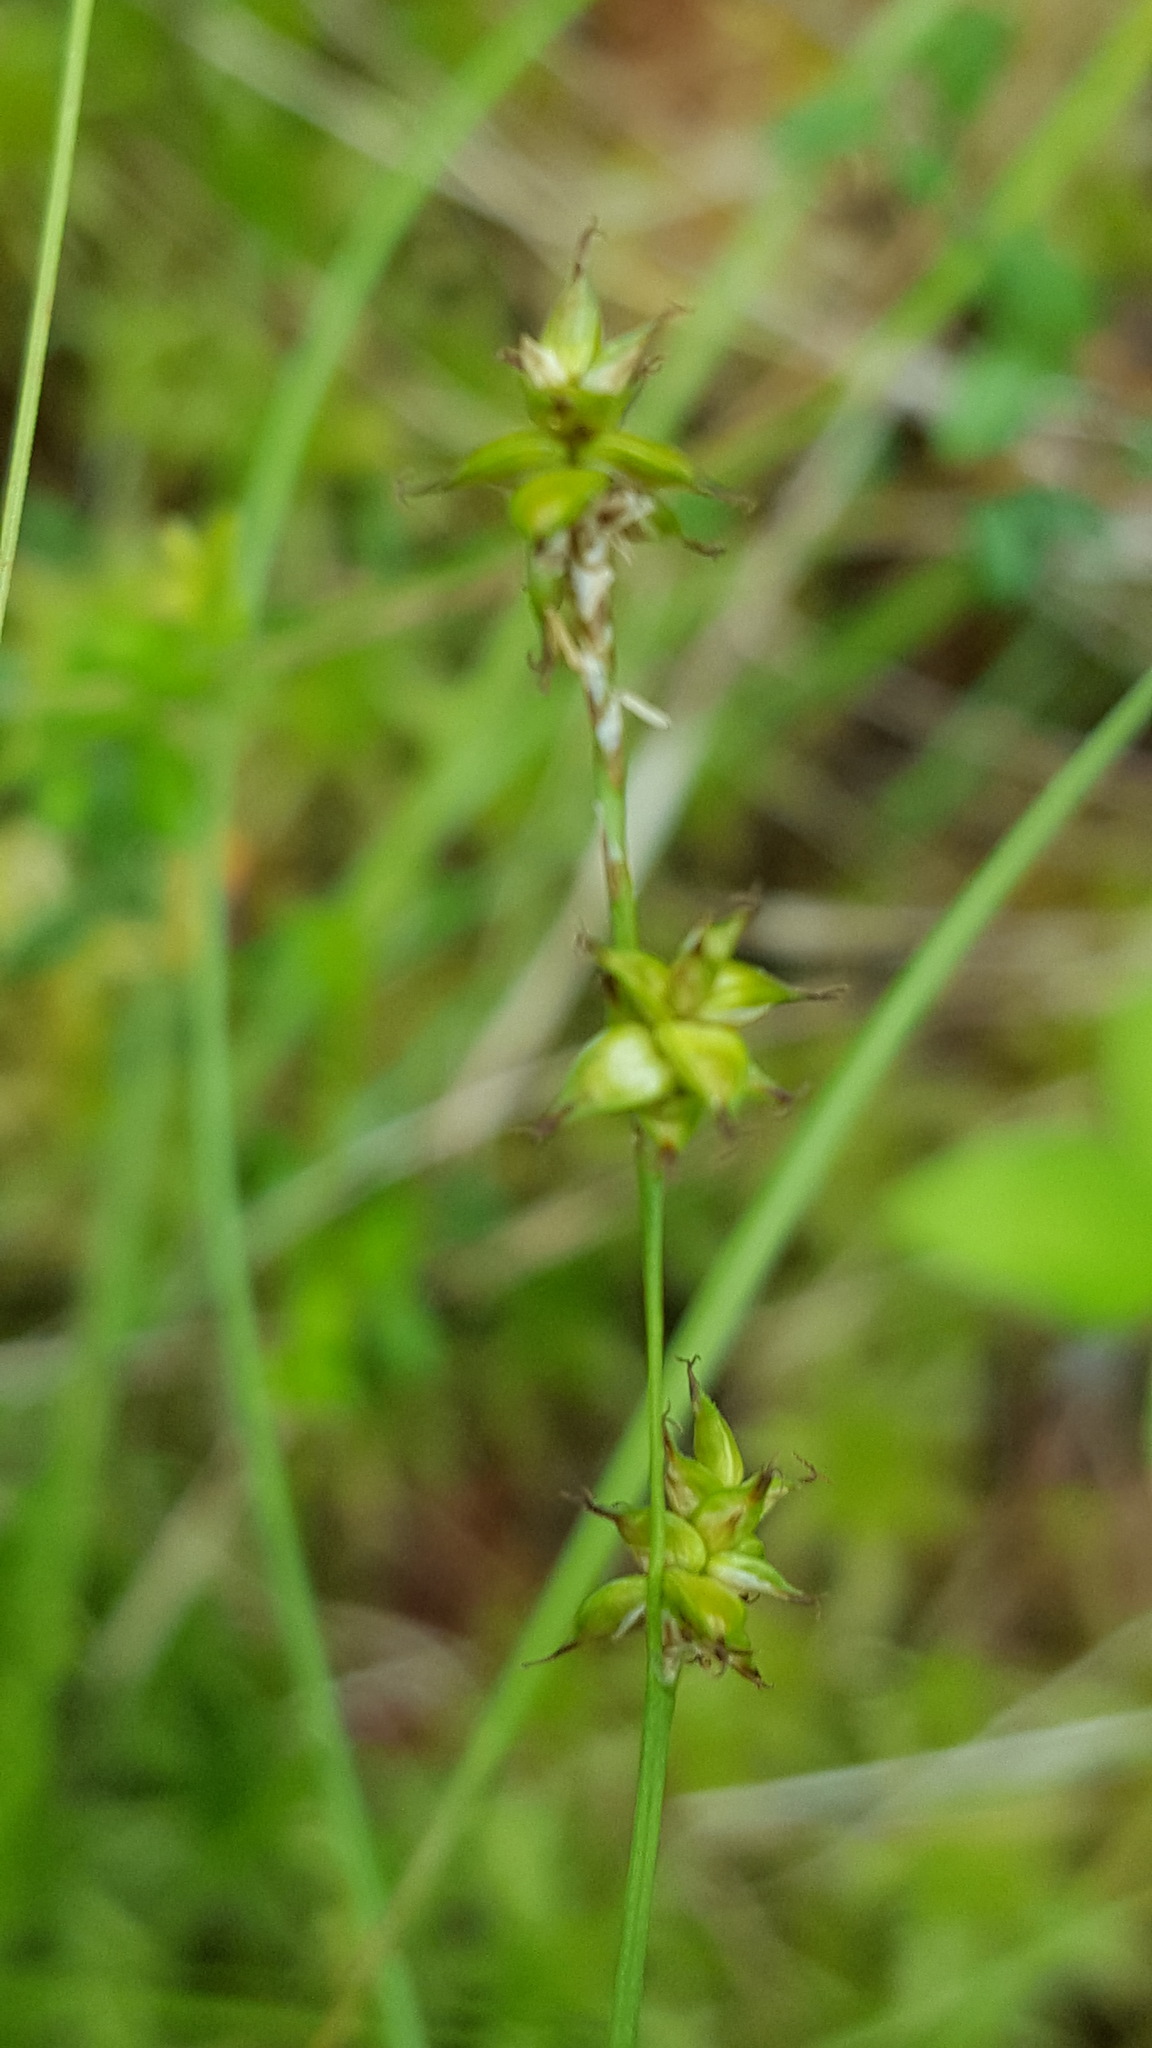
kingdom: Plantae
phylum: Tracheophyta
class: Liliopsida
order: Poales
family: Cyperaceae
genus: Carex
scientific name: Carex interior
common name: Inland sedge
